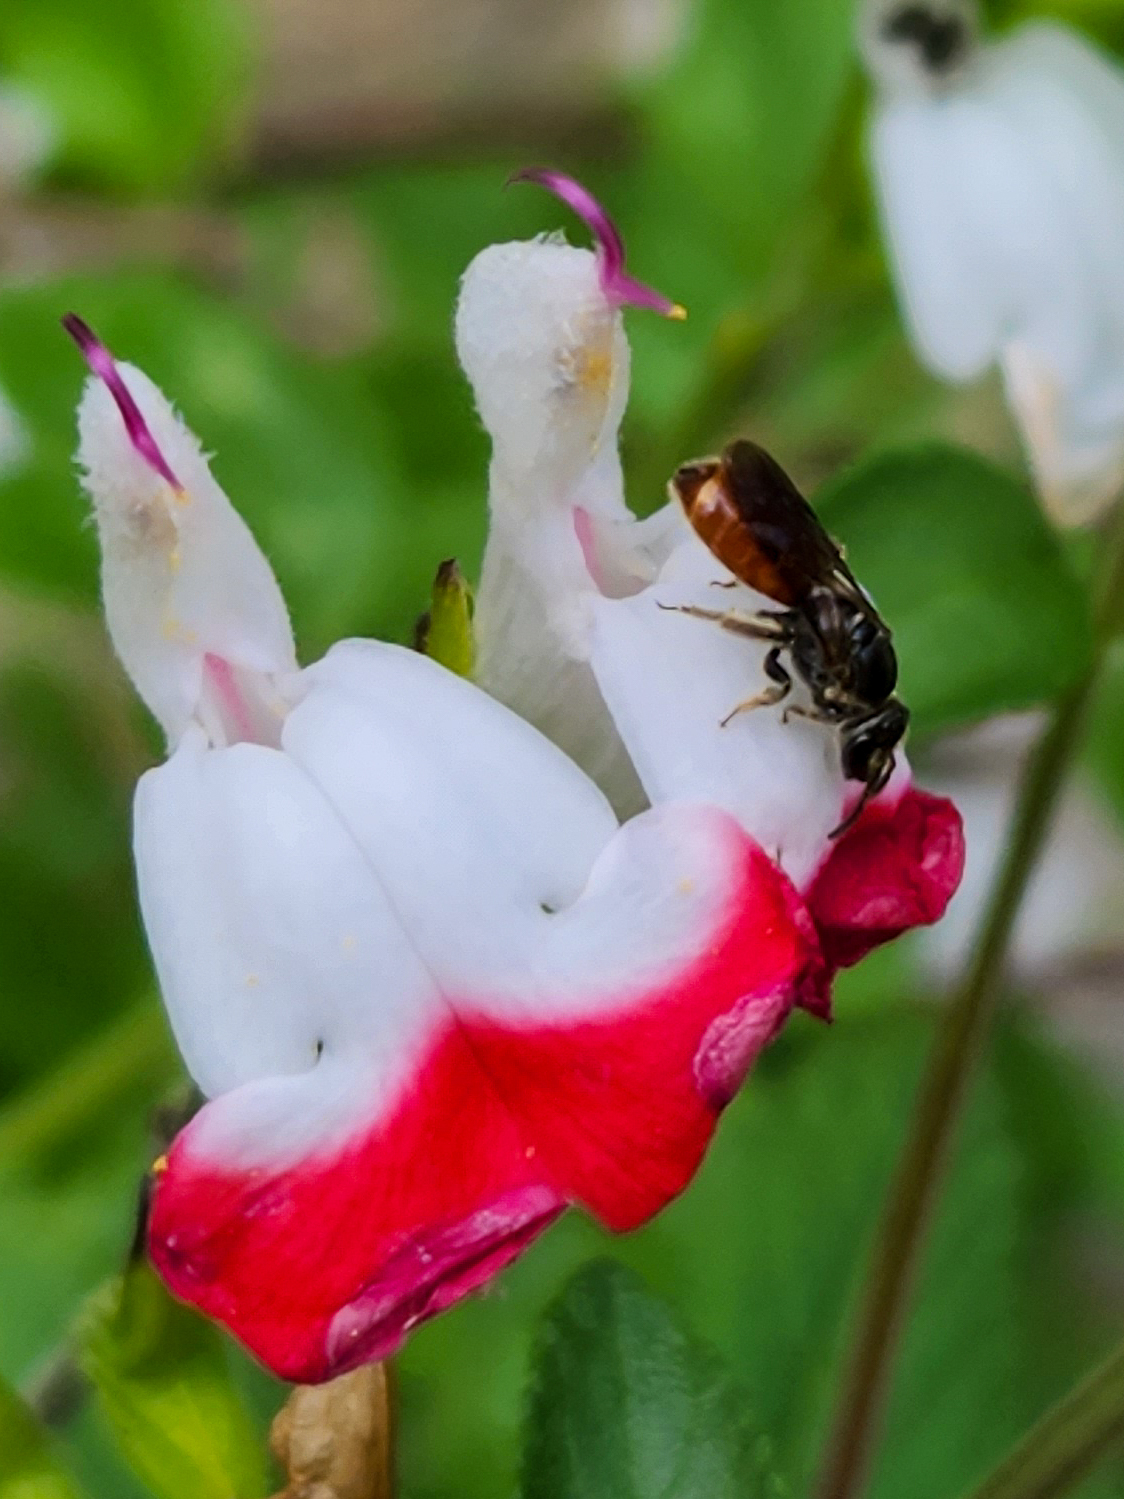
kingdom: Animalia
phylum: Arthropoda
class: Insecta
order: Hymenoptera
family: Halictidae
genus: Lasioglossum
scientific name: Lasioglossum ovaliceps
